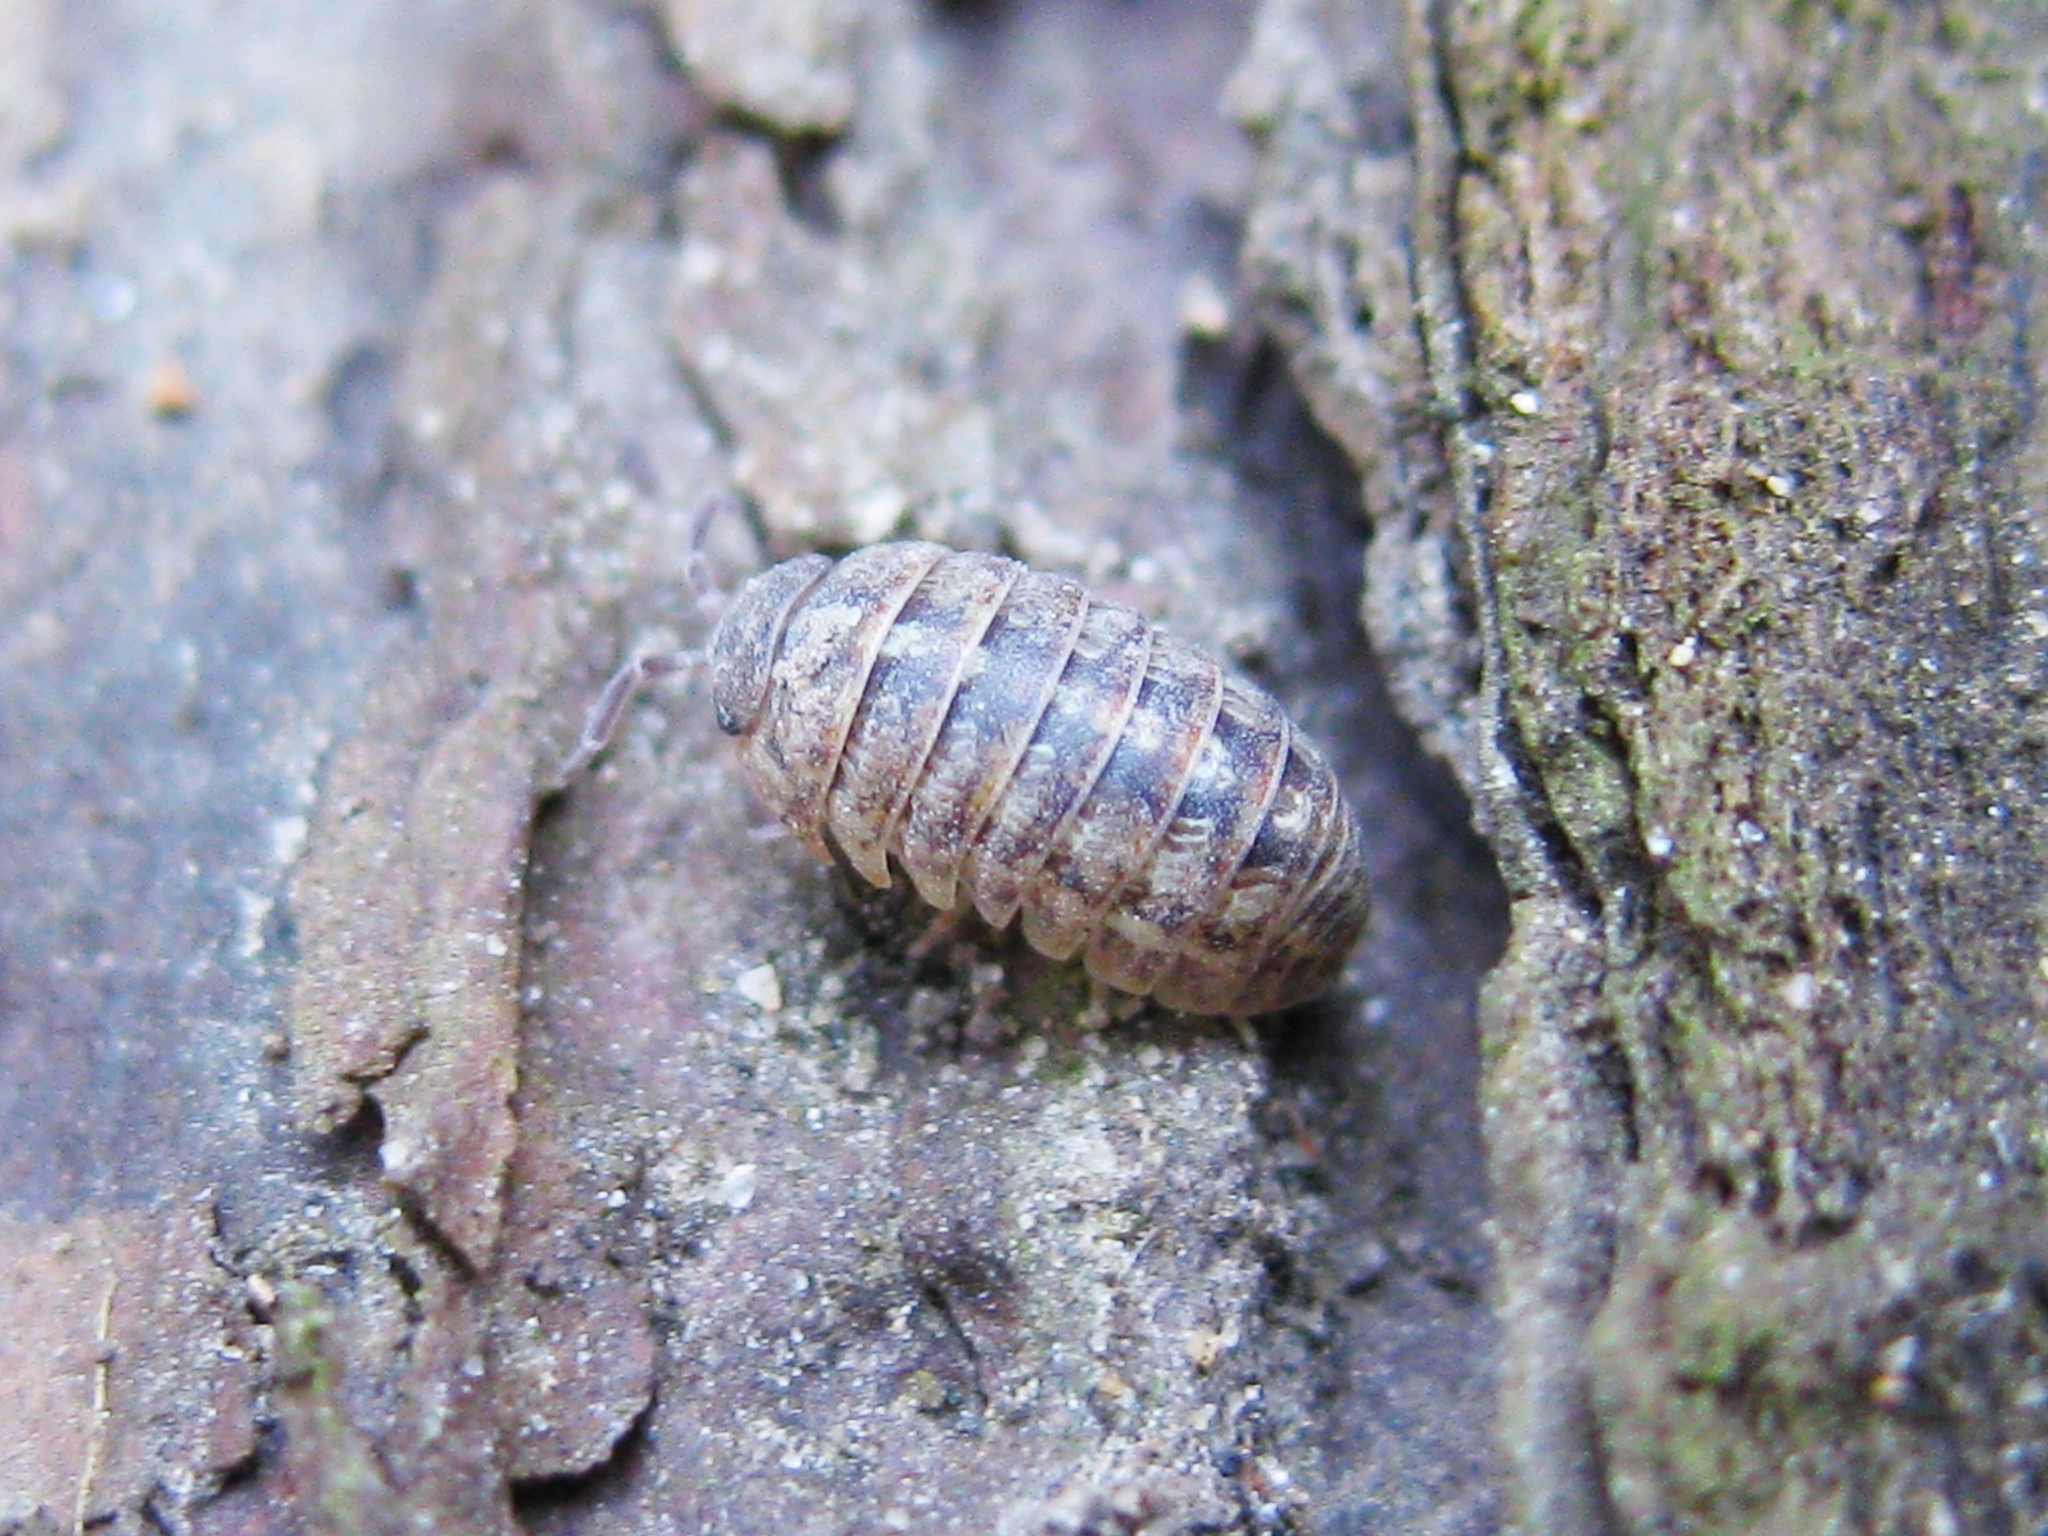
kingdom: Animalia
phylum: Arthropoda
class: Malacostraca
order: Isopoda
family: Armadillidiidae
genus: Armadillidium
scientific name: Armadillidium
